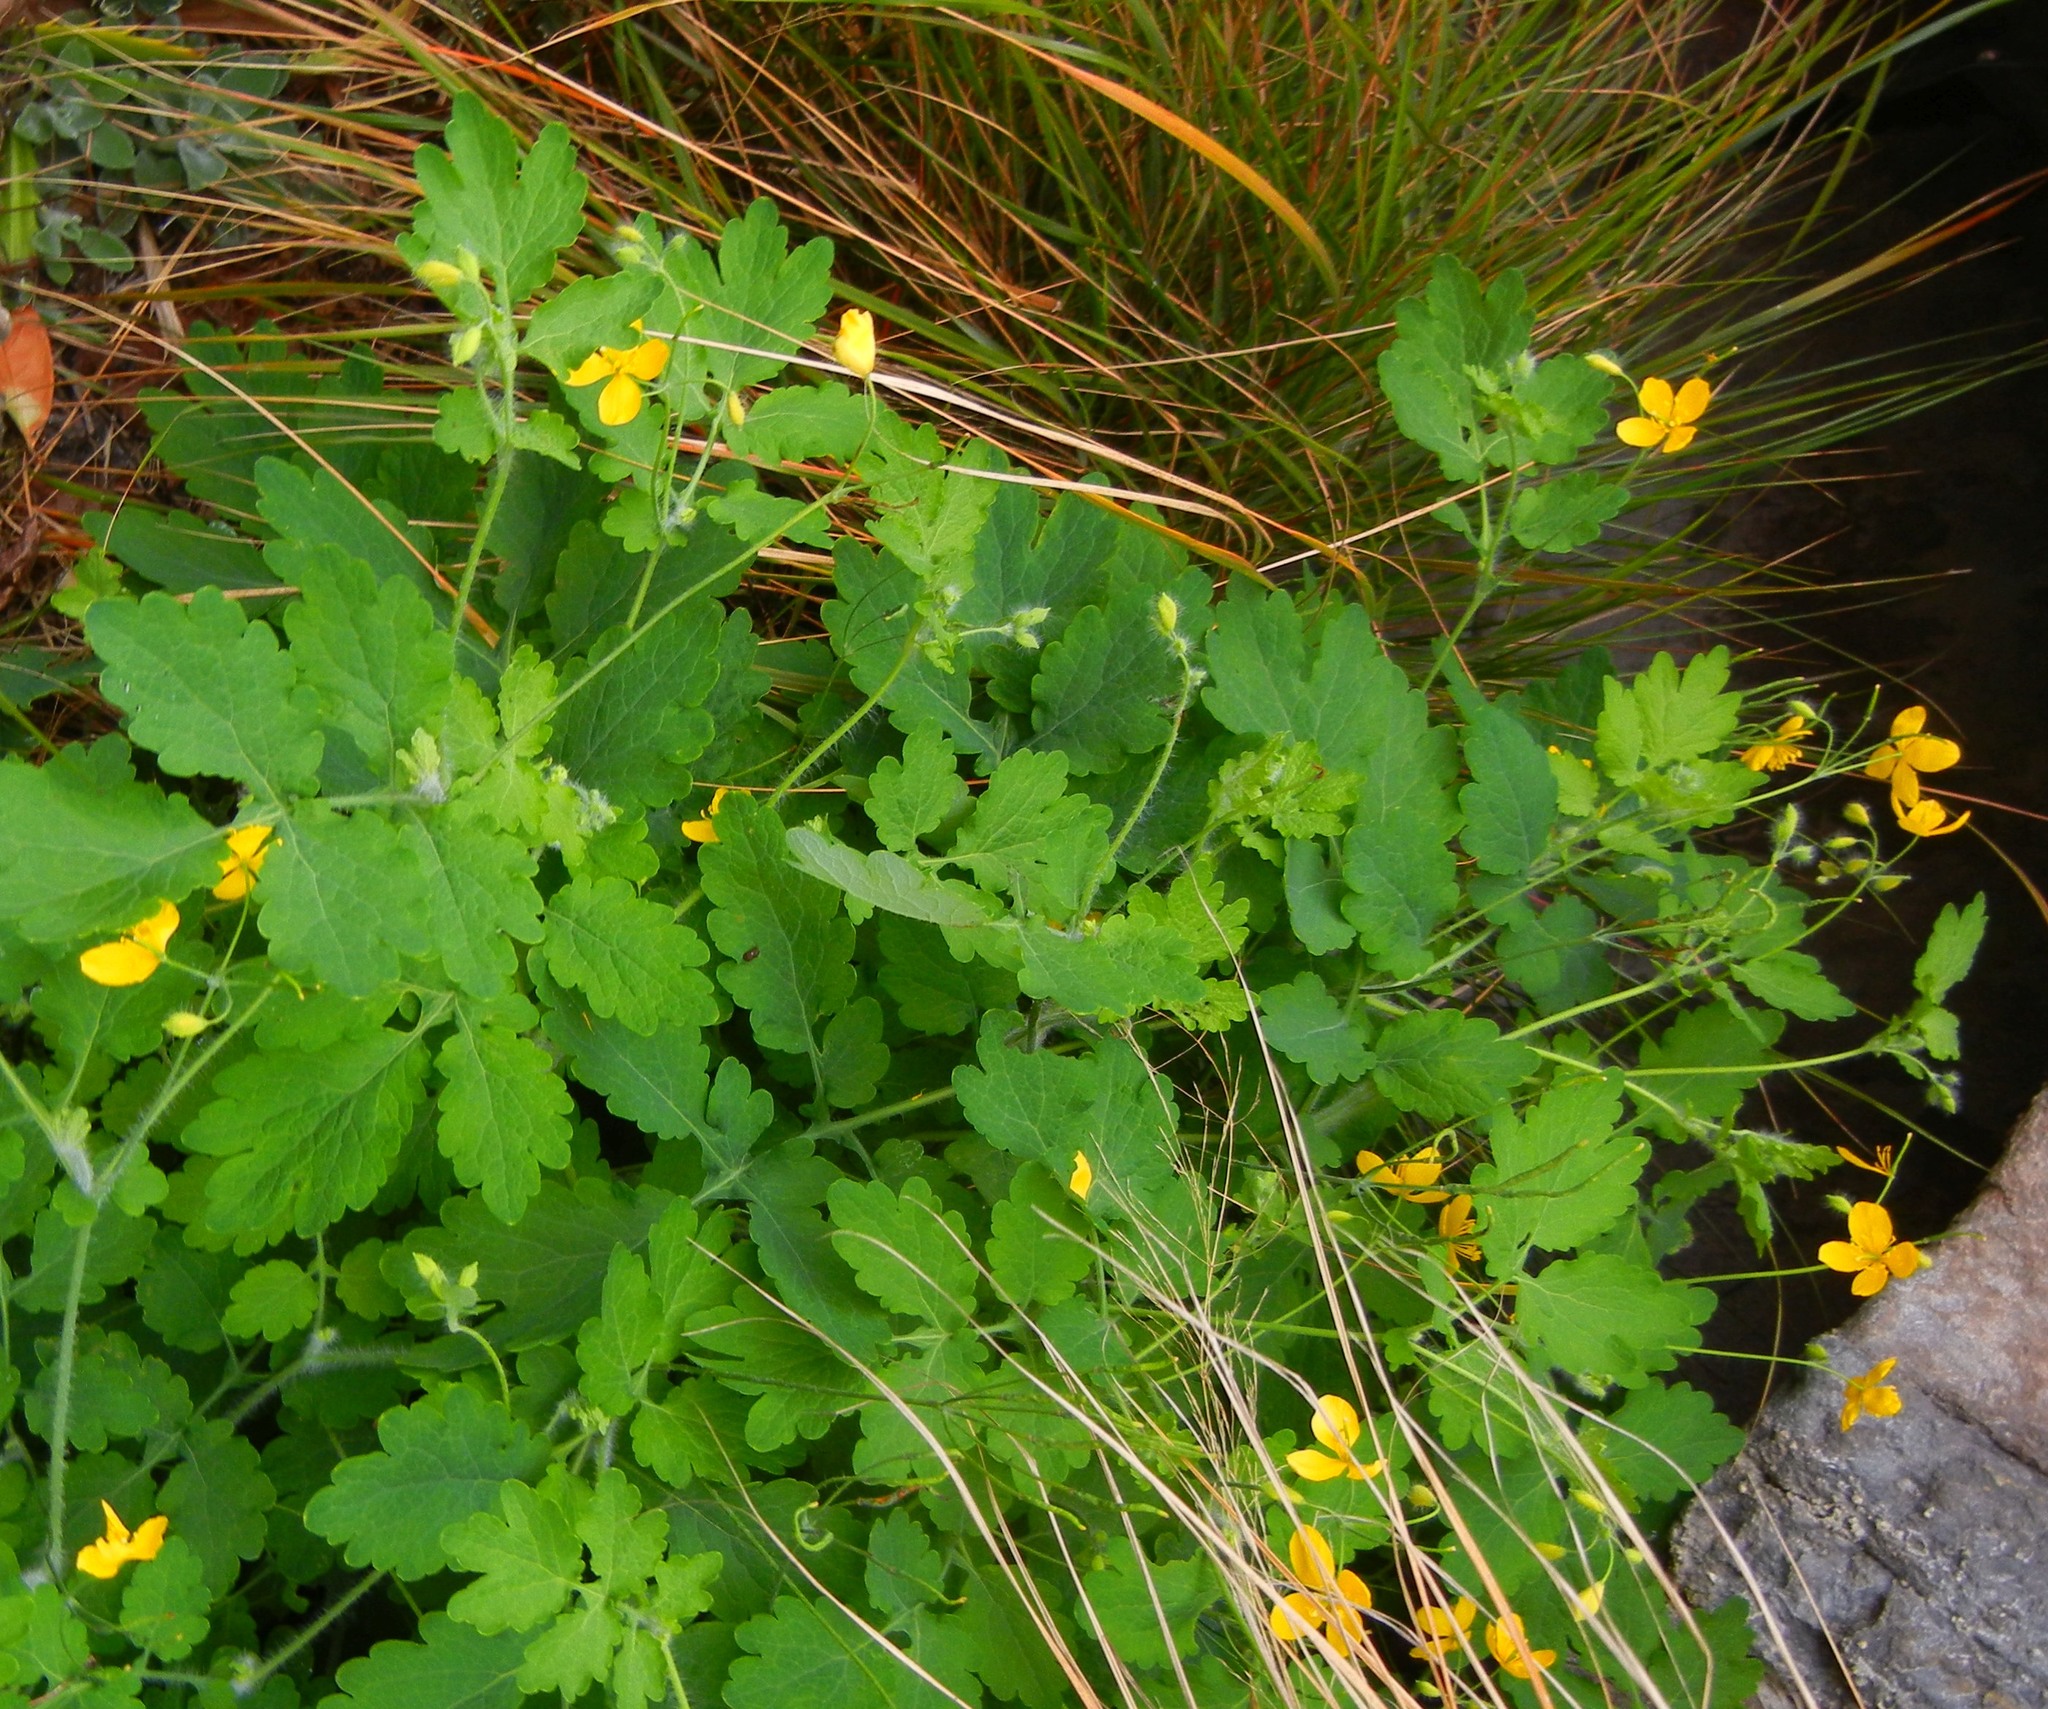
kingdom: Plantae
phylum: Tracheophyta
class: Magnoliopsida
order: Ranunculales
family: Papaveraceae
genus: Chelidonium
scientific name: Chelidonium majus
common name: Greater celandine
